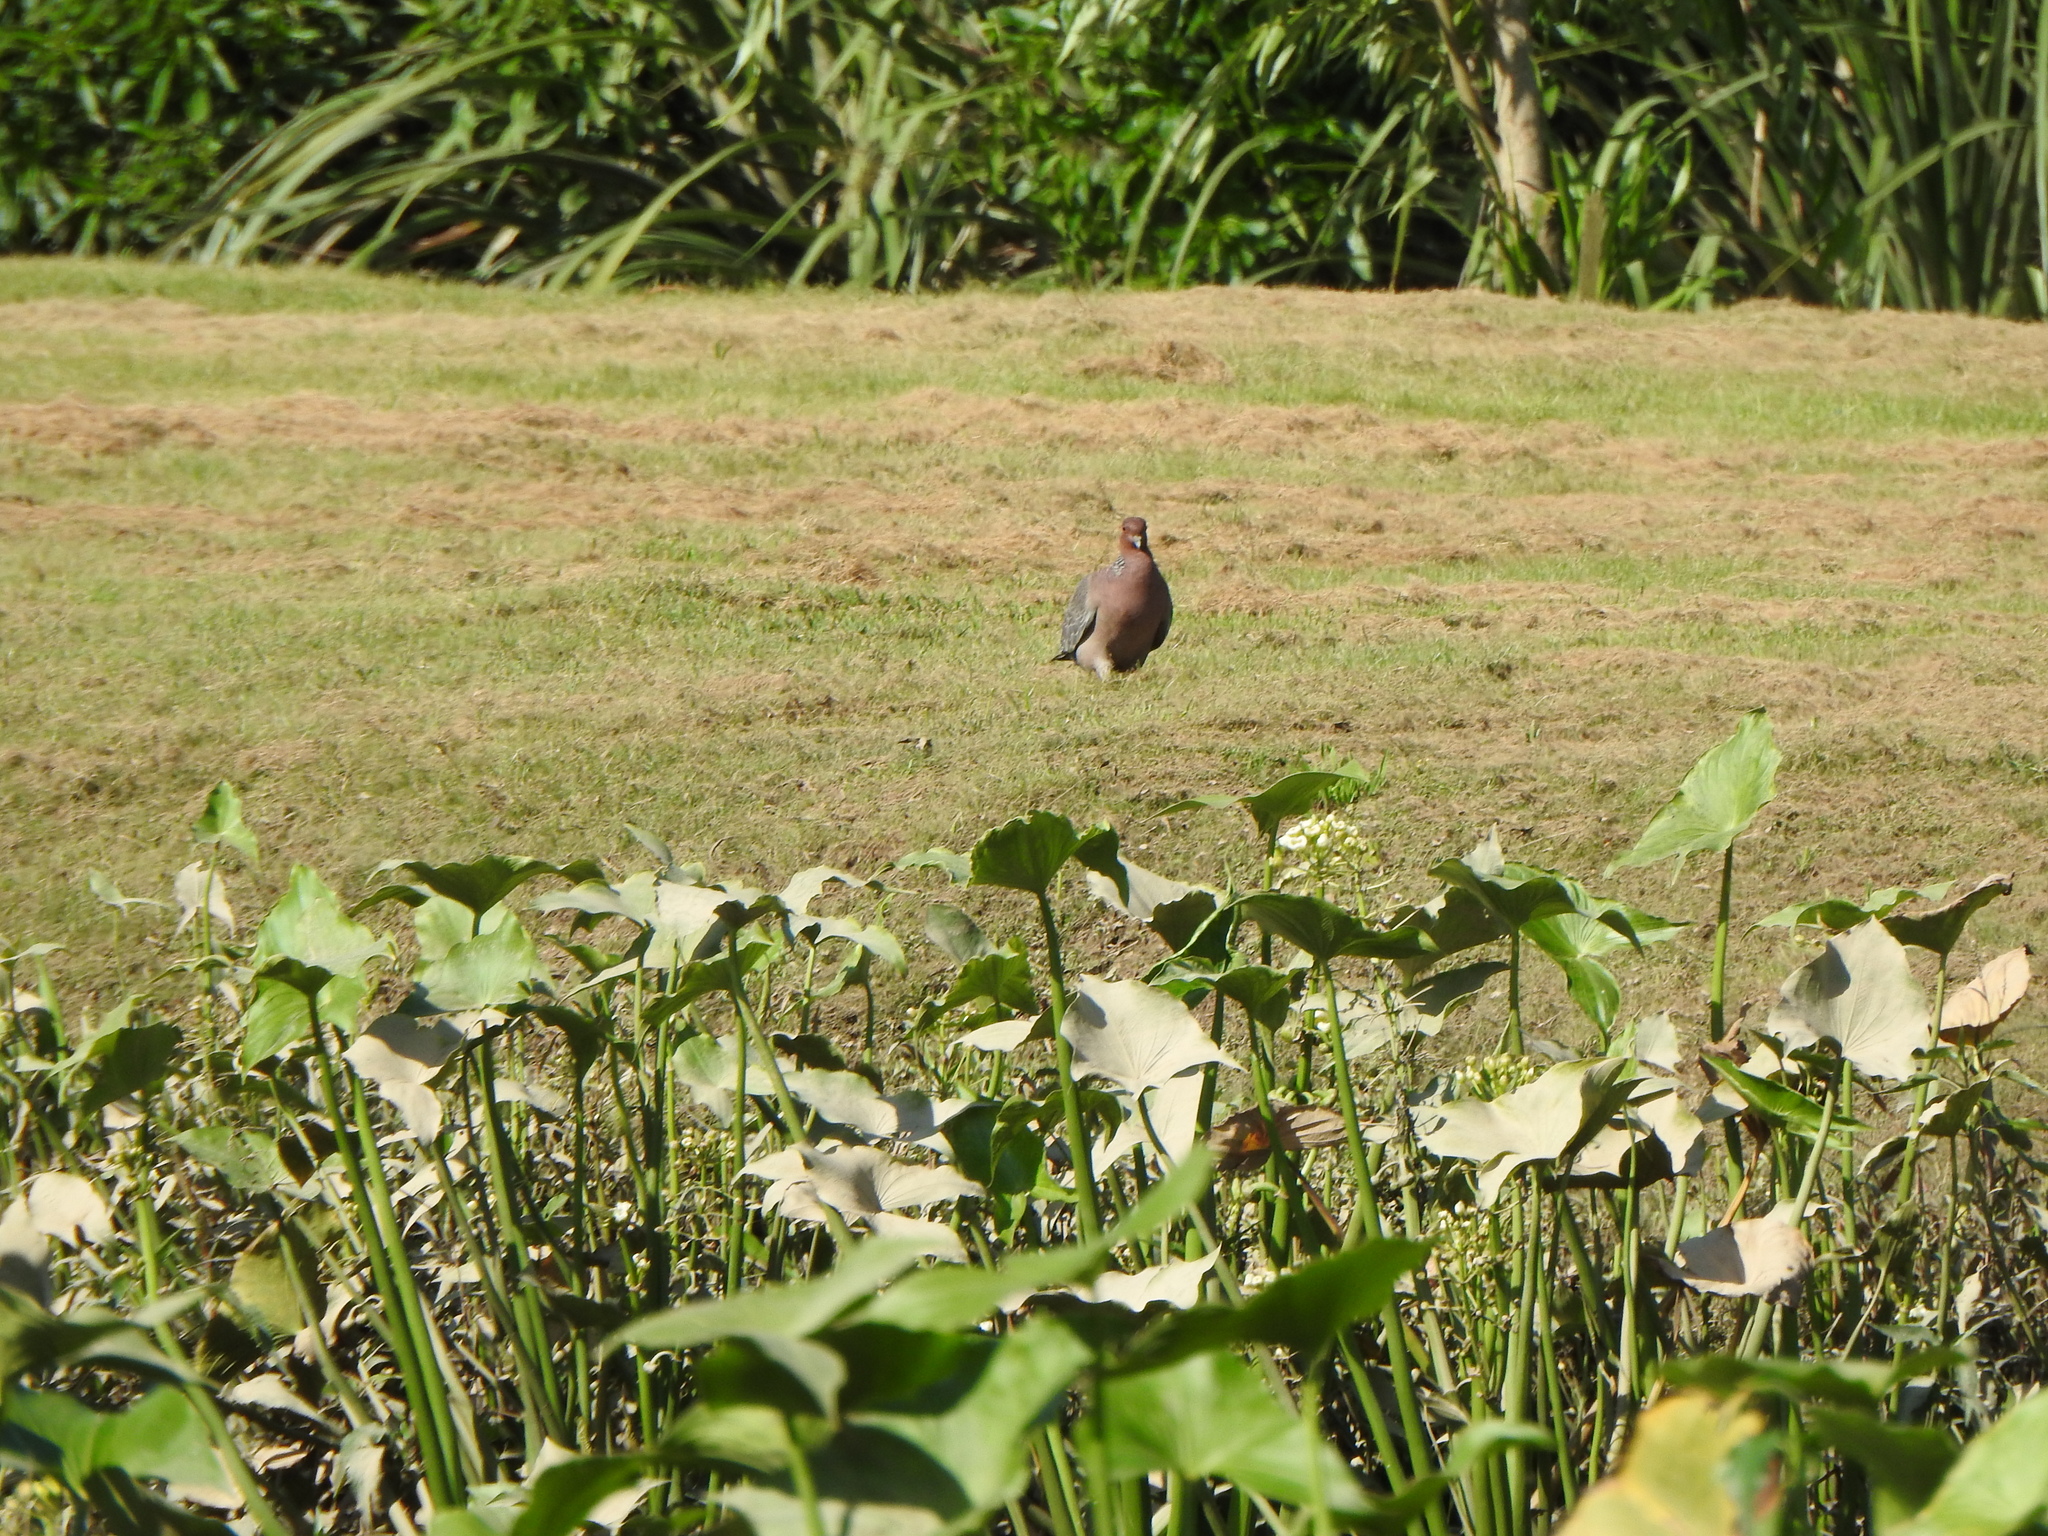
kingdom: Animalia
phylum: Chordata
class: Aves
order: Columbiformes
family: Columbidae
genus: Patagioenas
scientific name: Patagioenas picazuro
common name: Picazuro pigeon
